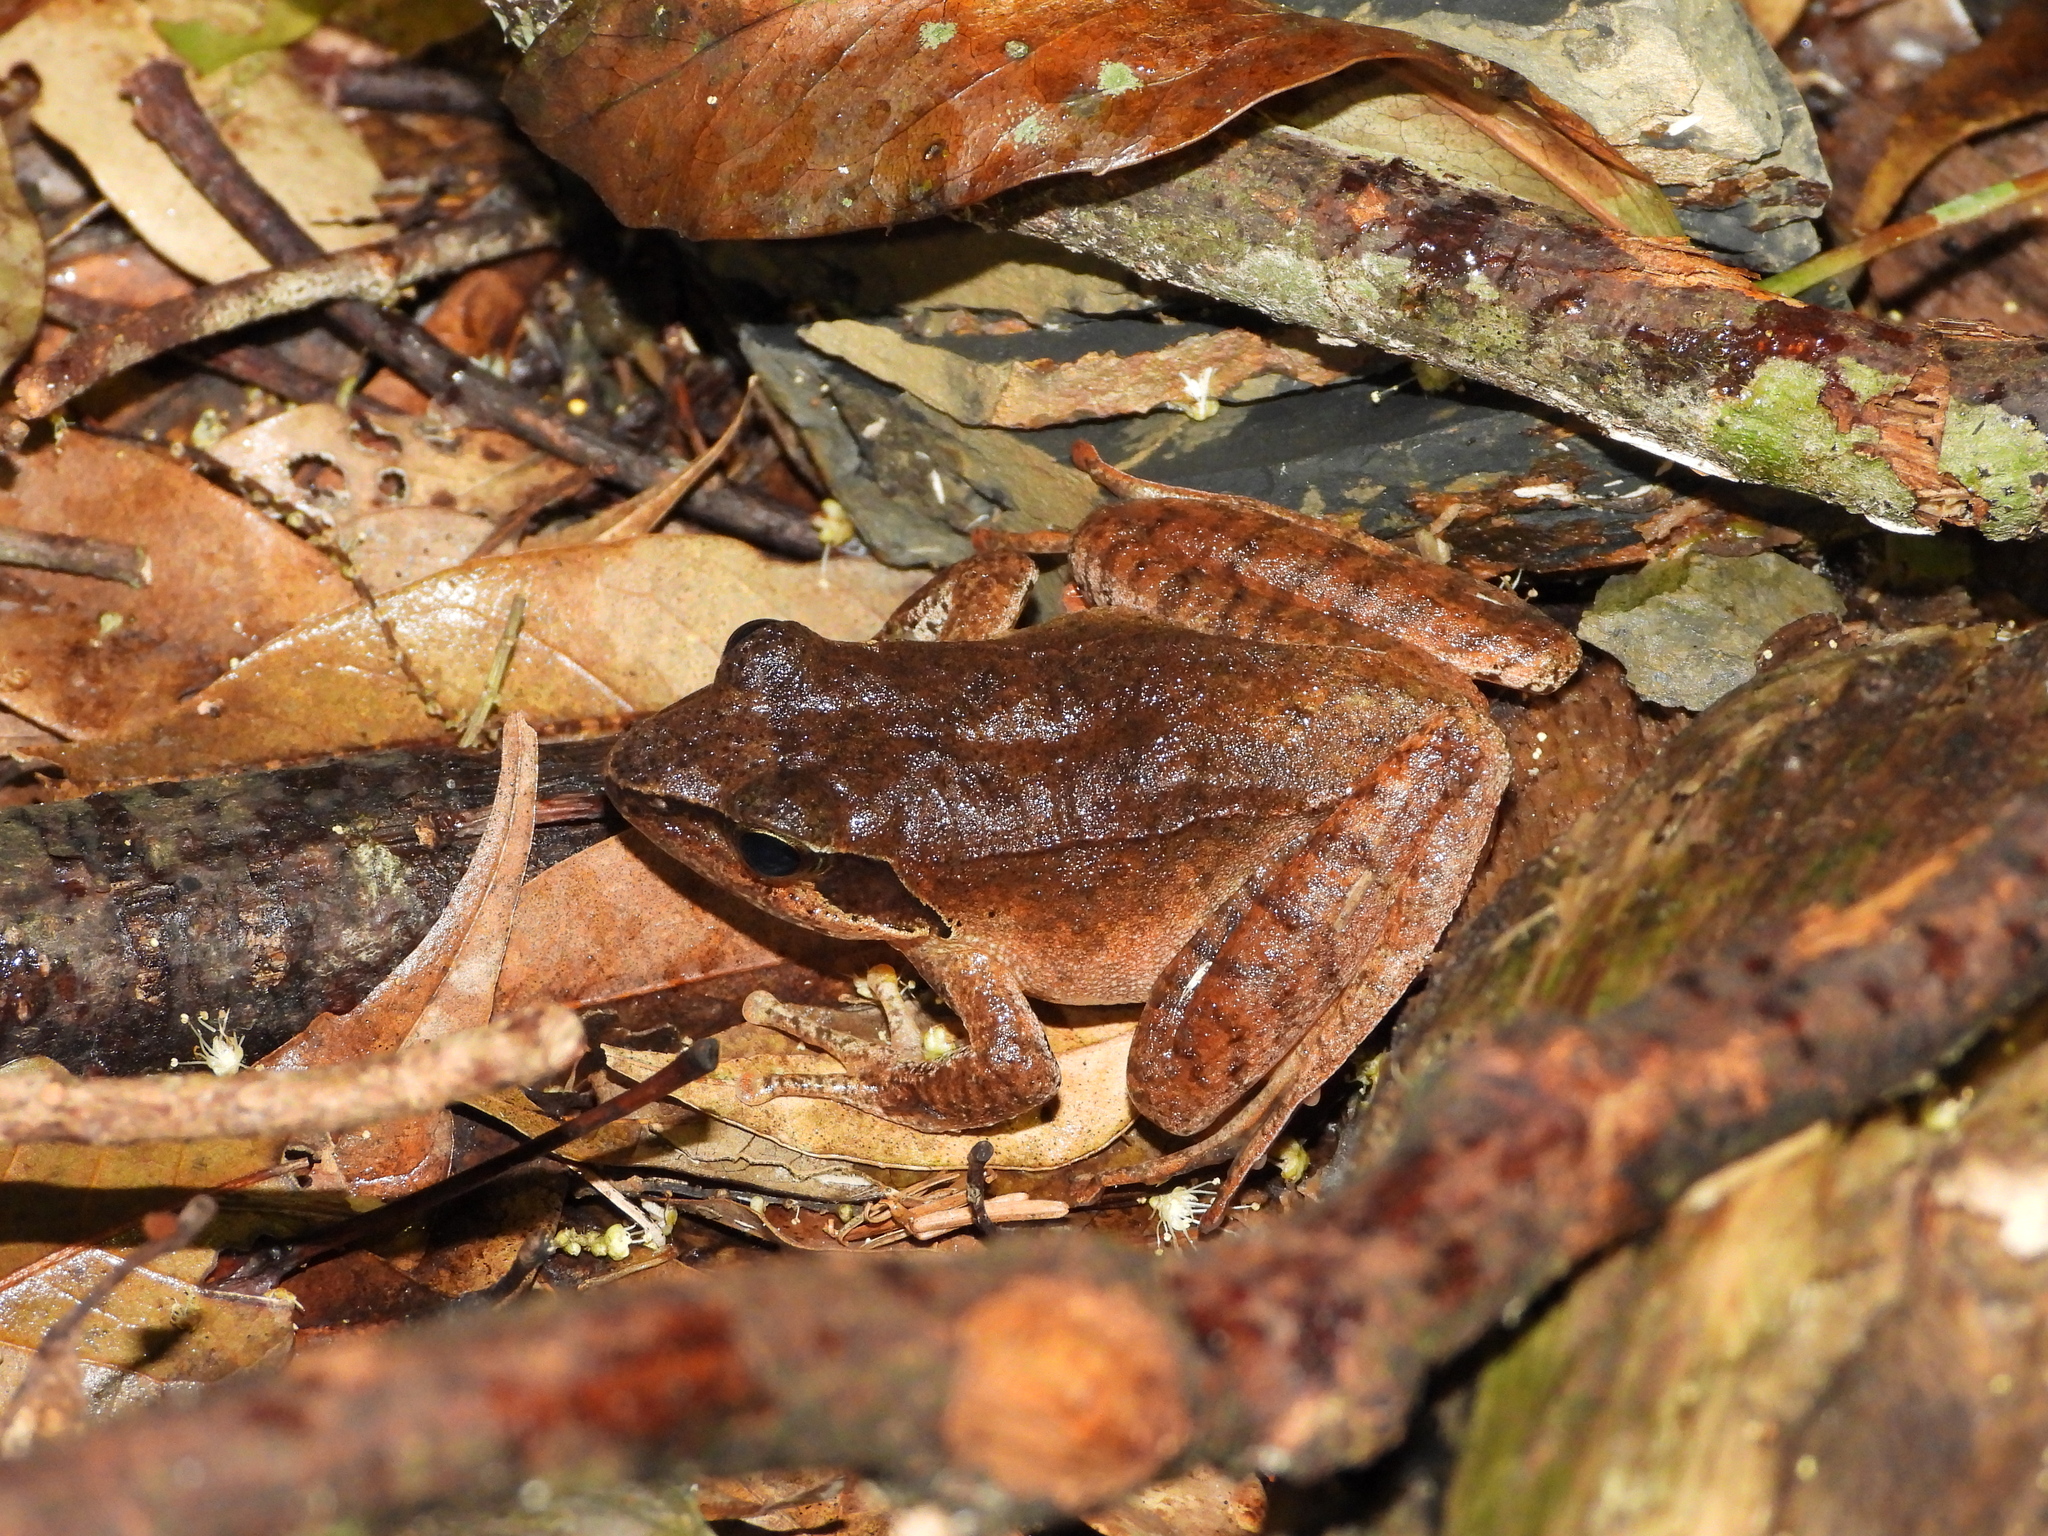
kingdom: Animalia
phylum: Chordata
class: Amphibia
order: Anura
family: Ranidae
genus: Rana
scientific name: Rana sauteri
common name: Kanshirei village frog
